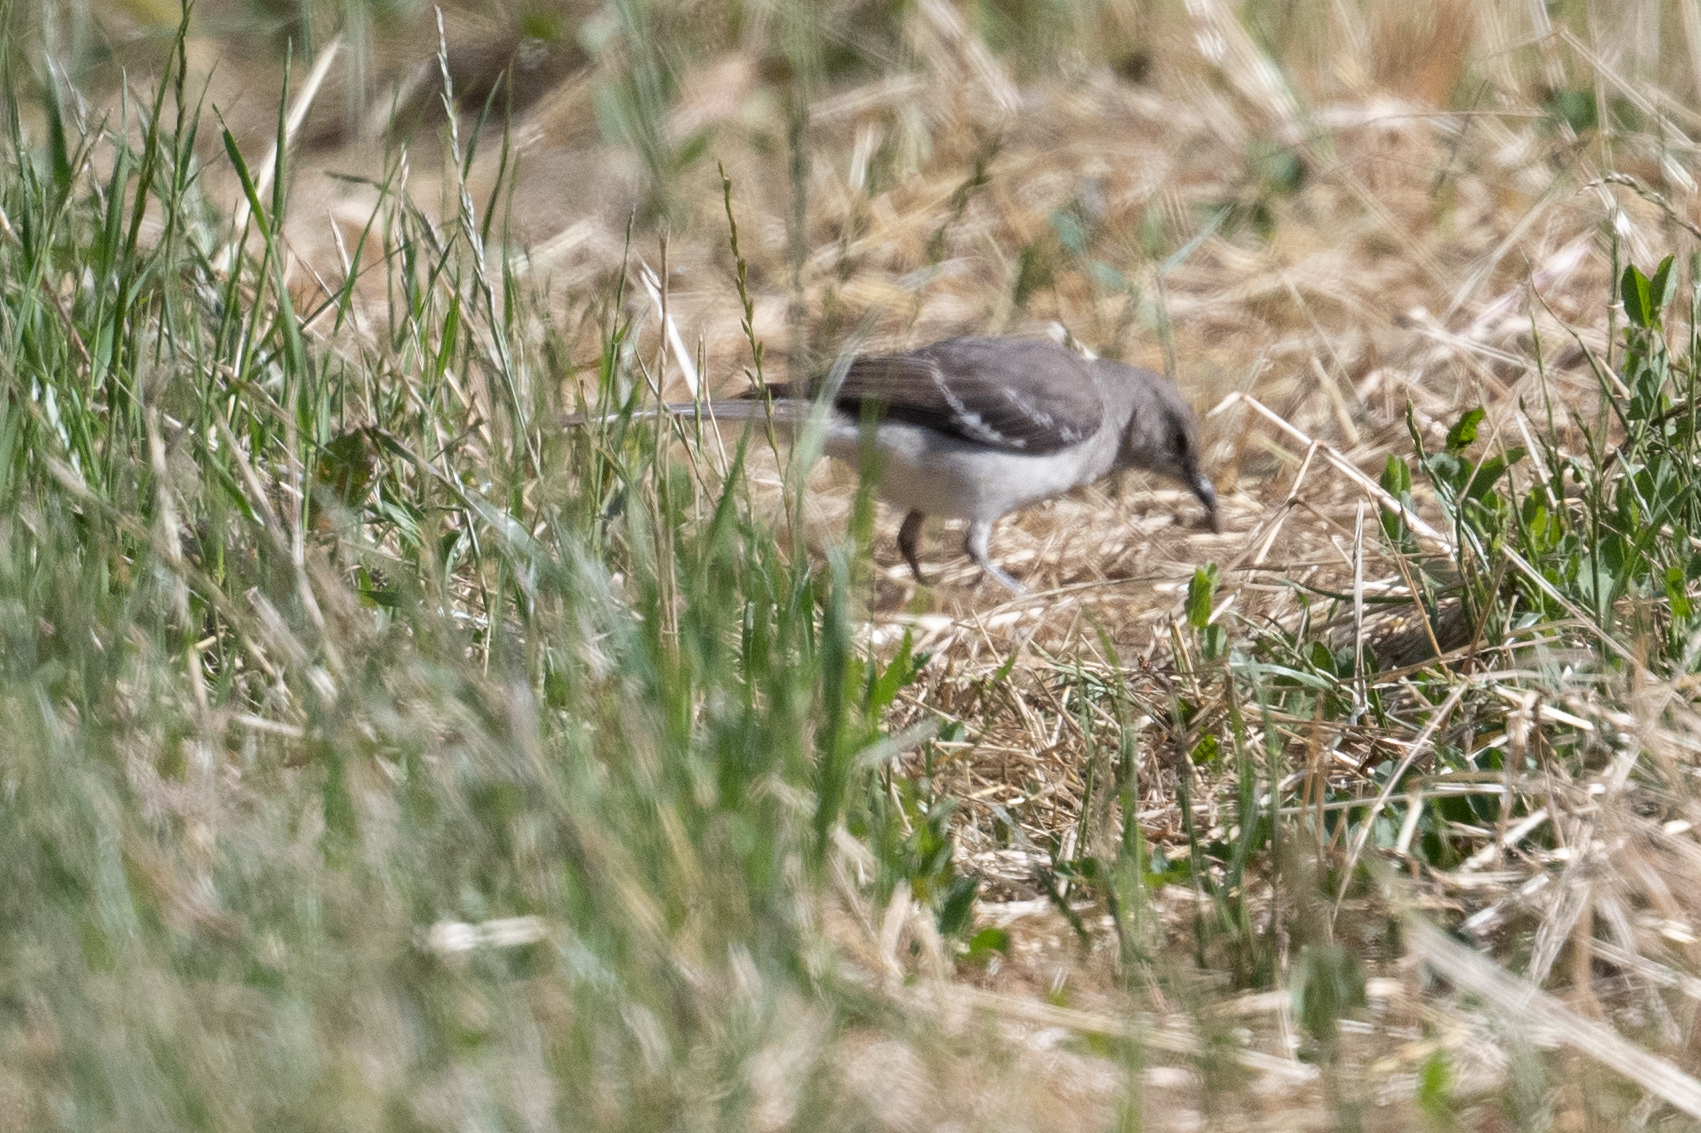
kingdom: Animalia
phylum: Chordata
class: Aves
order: Passeriformes
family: Mimidae
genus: Mimus
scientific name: Mimus polyglottos
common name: Northern mockingbird
